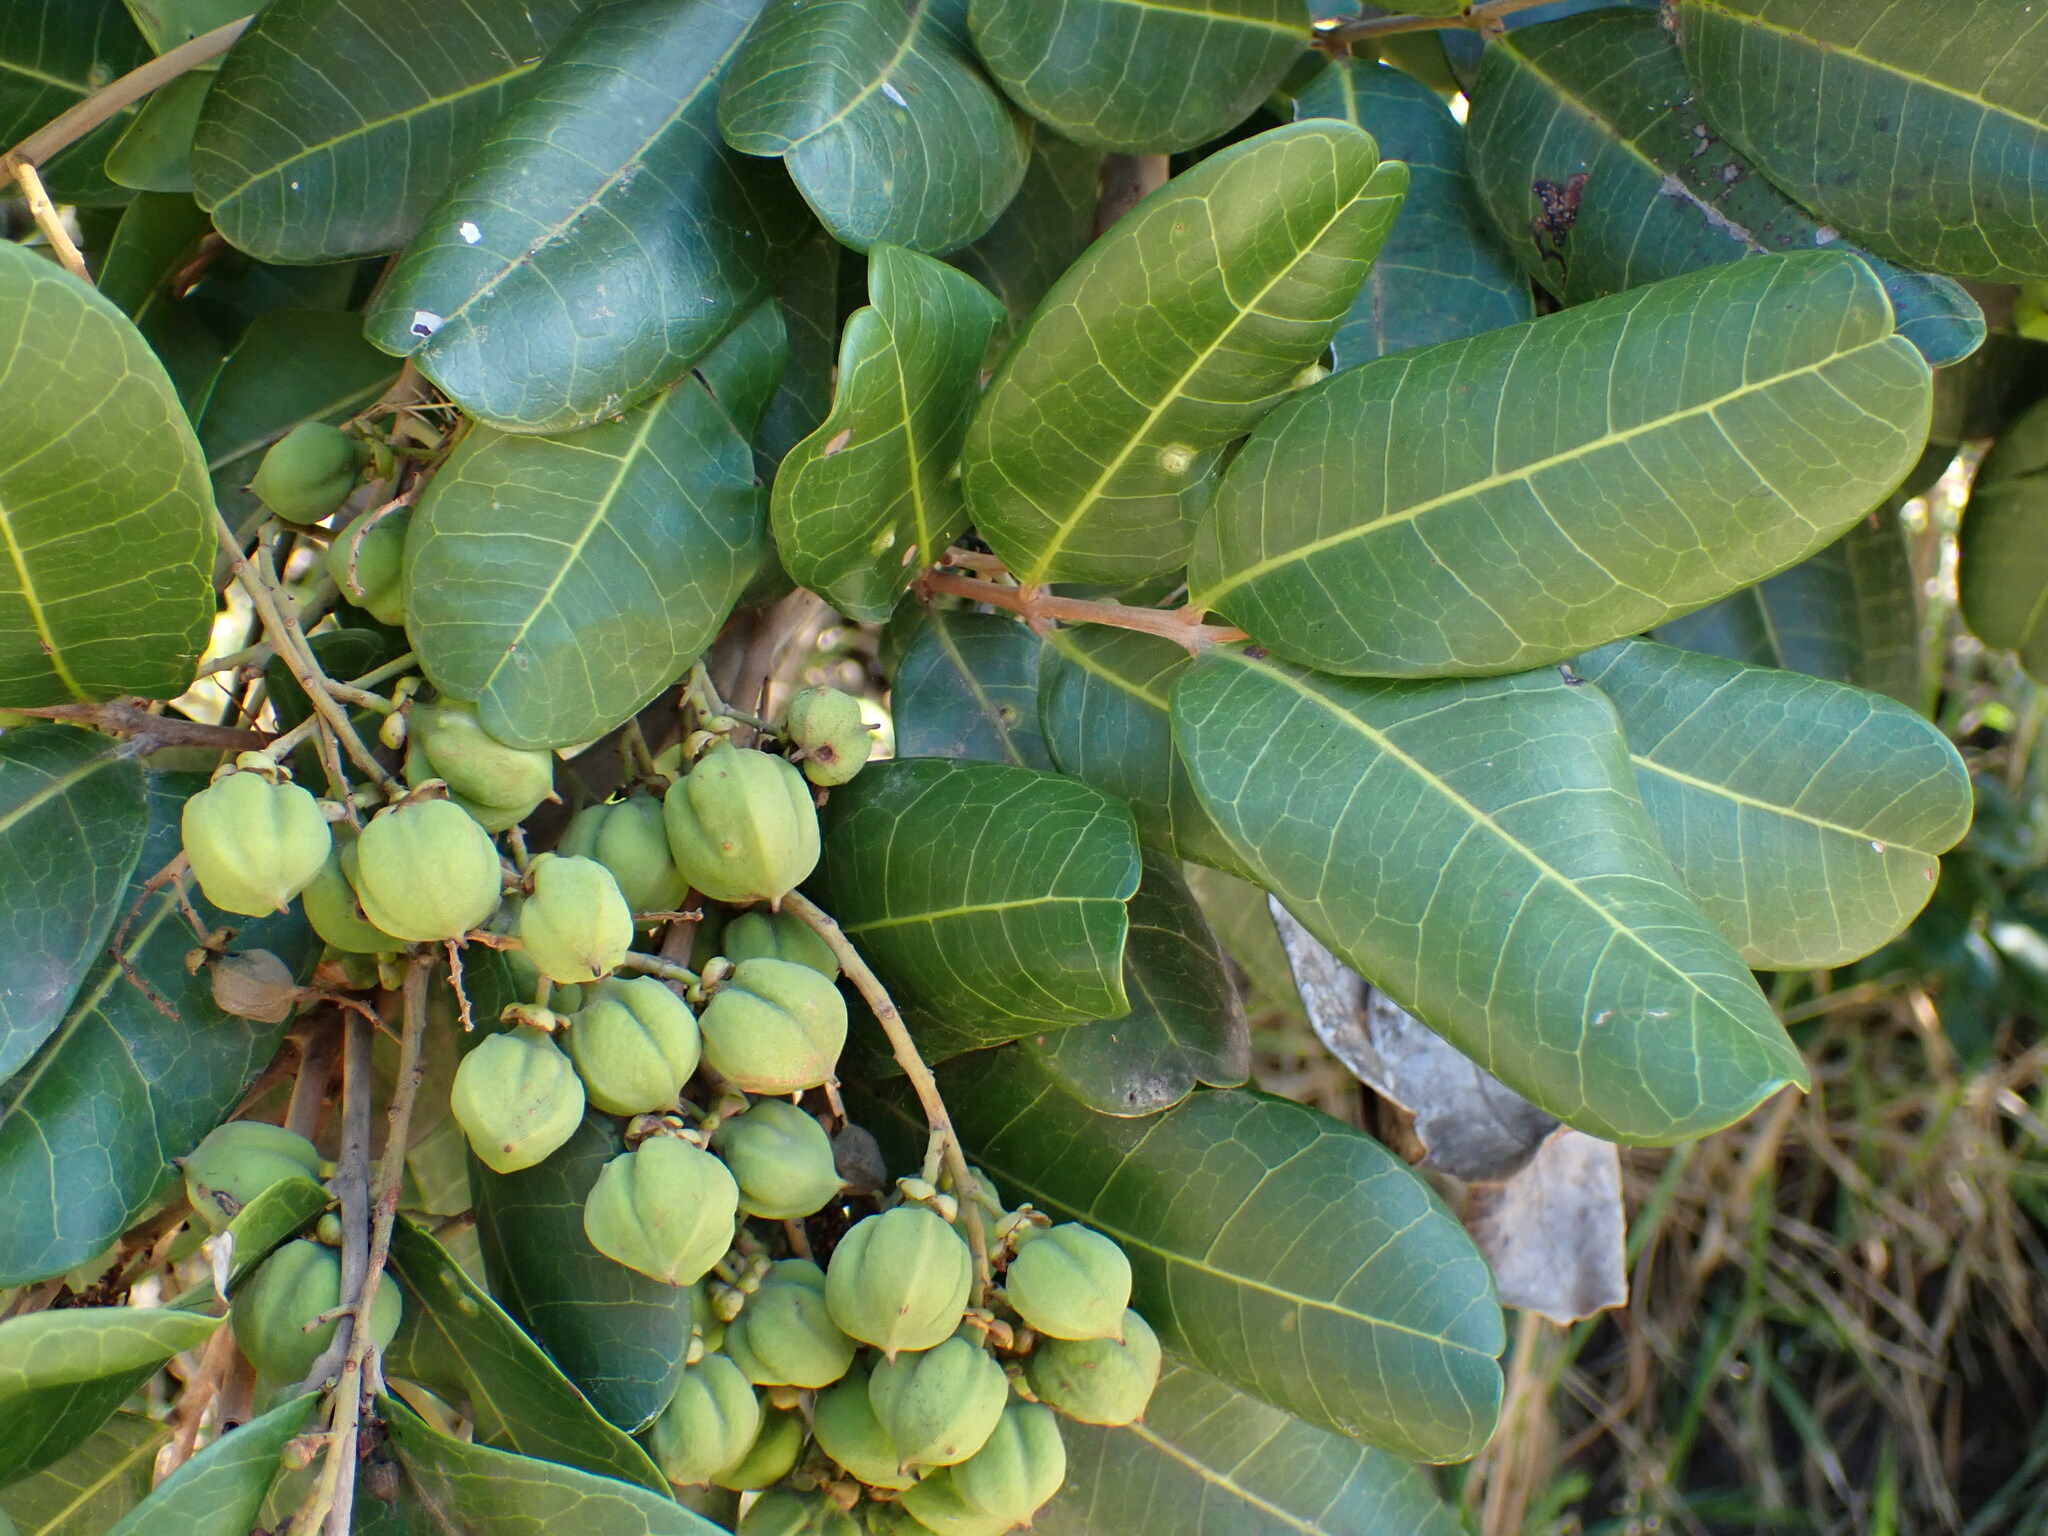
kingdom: Plantae
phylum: Tracheophyta
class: Magnoliopsida
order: Sapindales
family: Sapindaceae
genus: Cupaniopsis
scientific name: Cupaniopsis anacardioides
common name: Carrotwood
